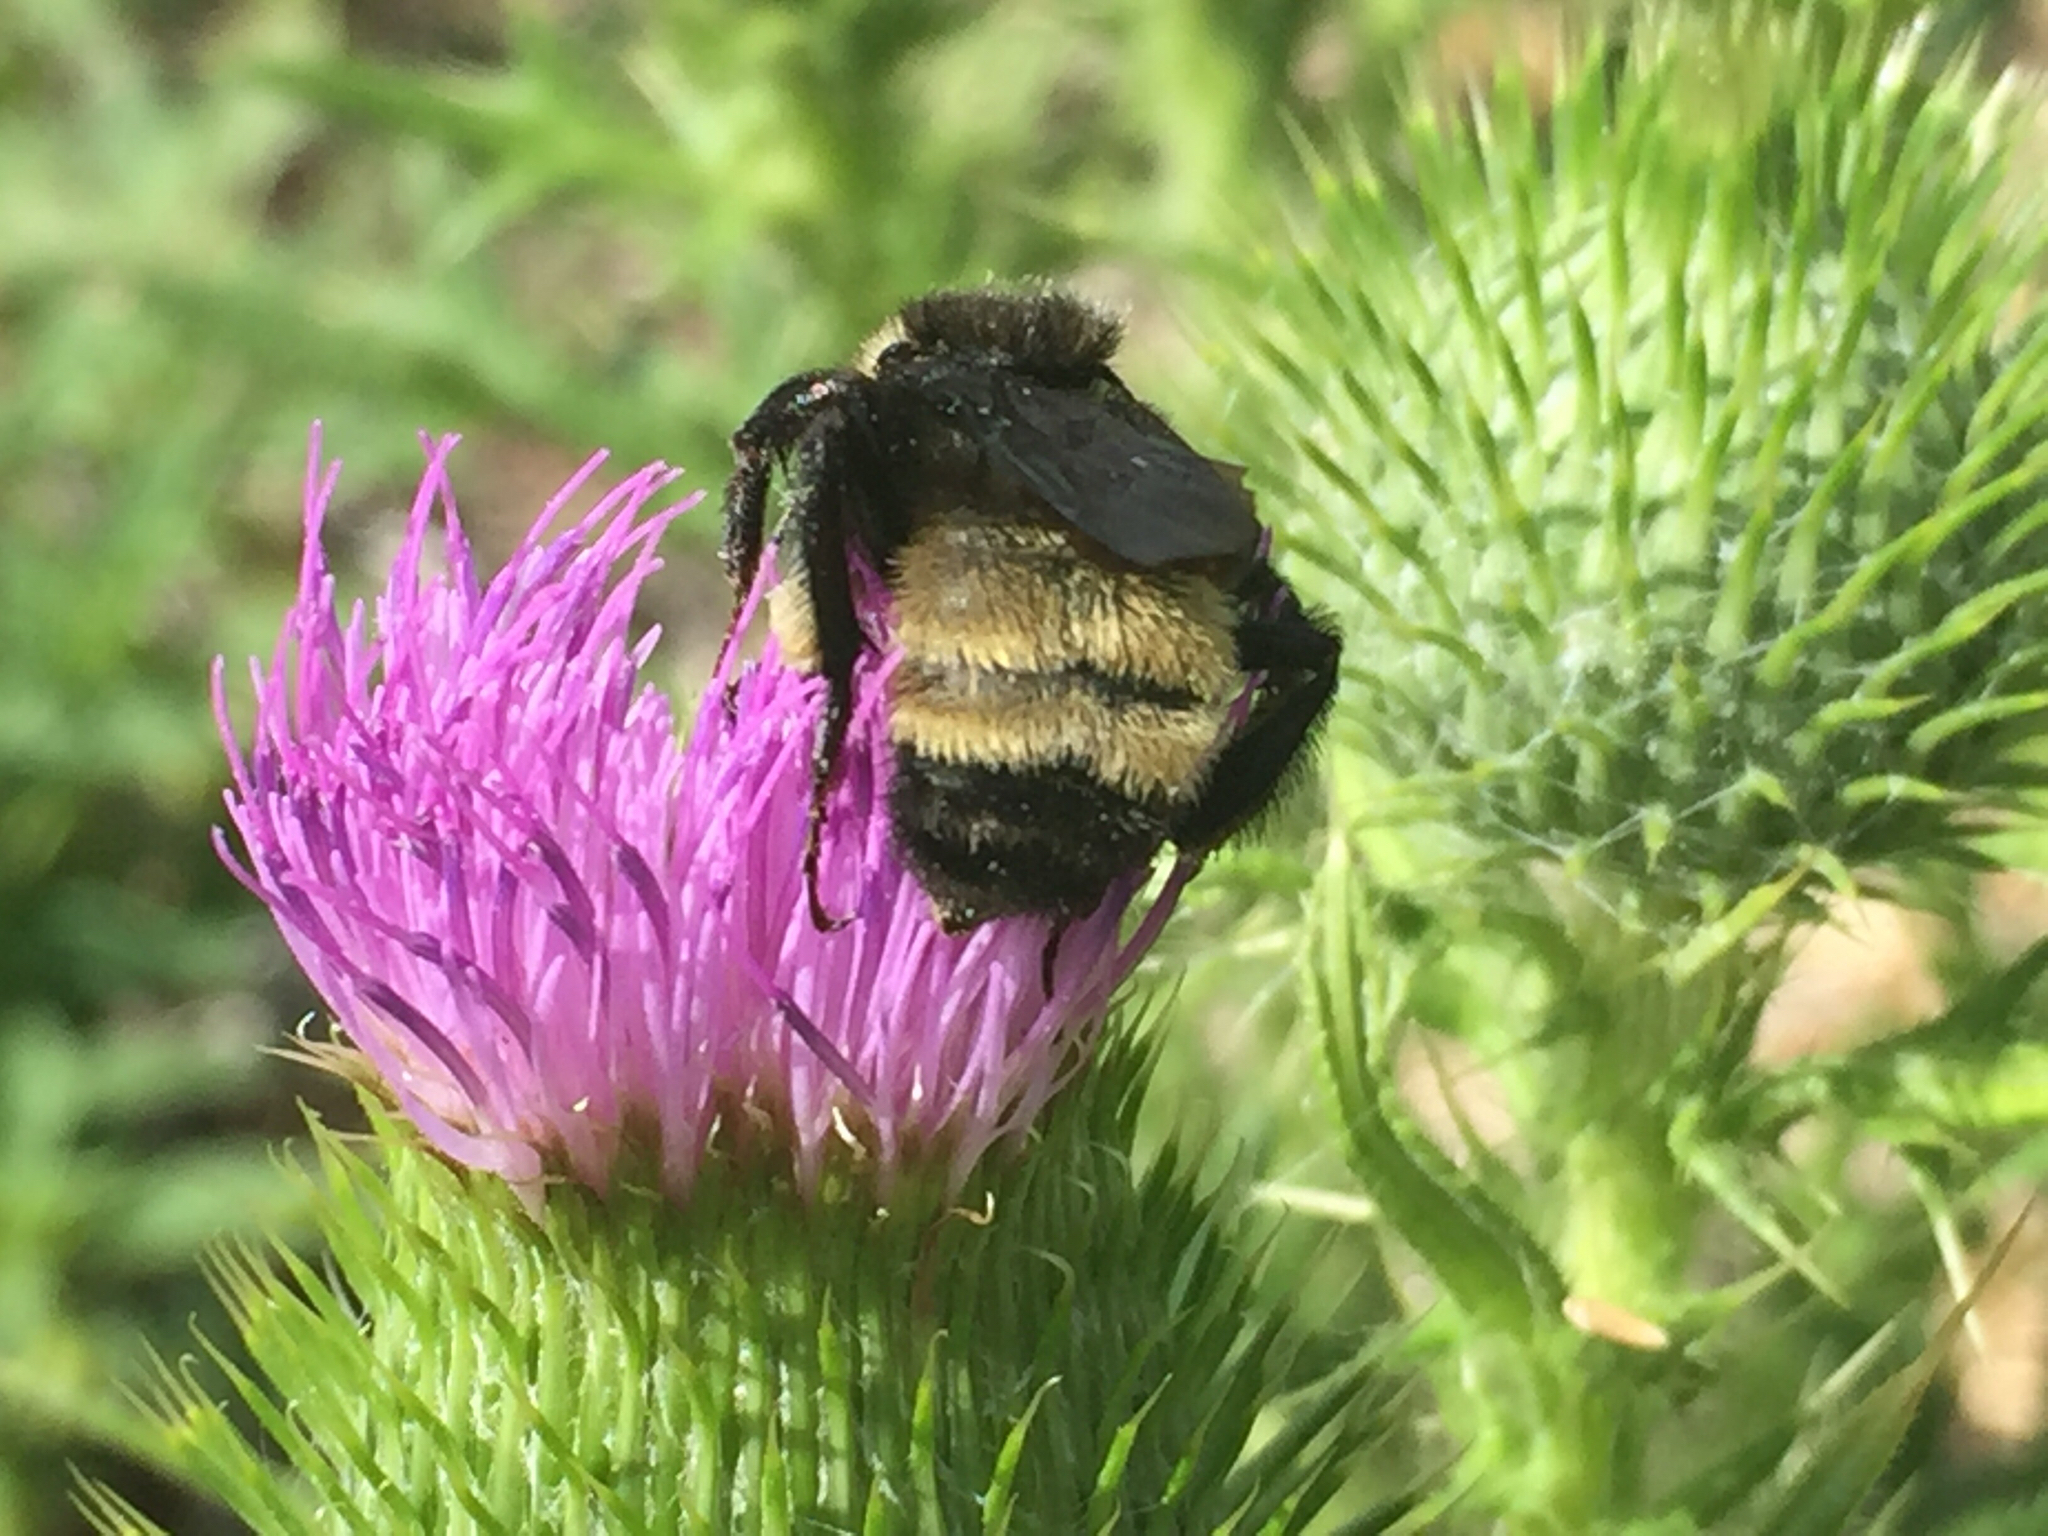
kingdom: Animalia
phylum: Arthropoda
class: Insecta
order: Hymenoptera
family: Apidae
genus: Bombus
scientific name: Bombus pensylvanicus
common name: Bumble bee
